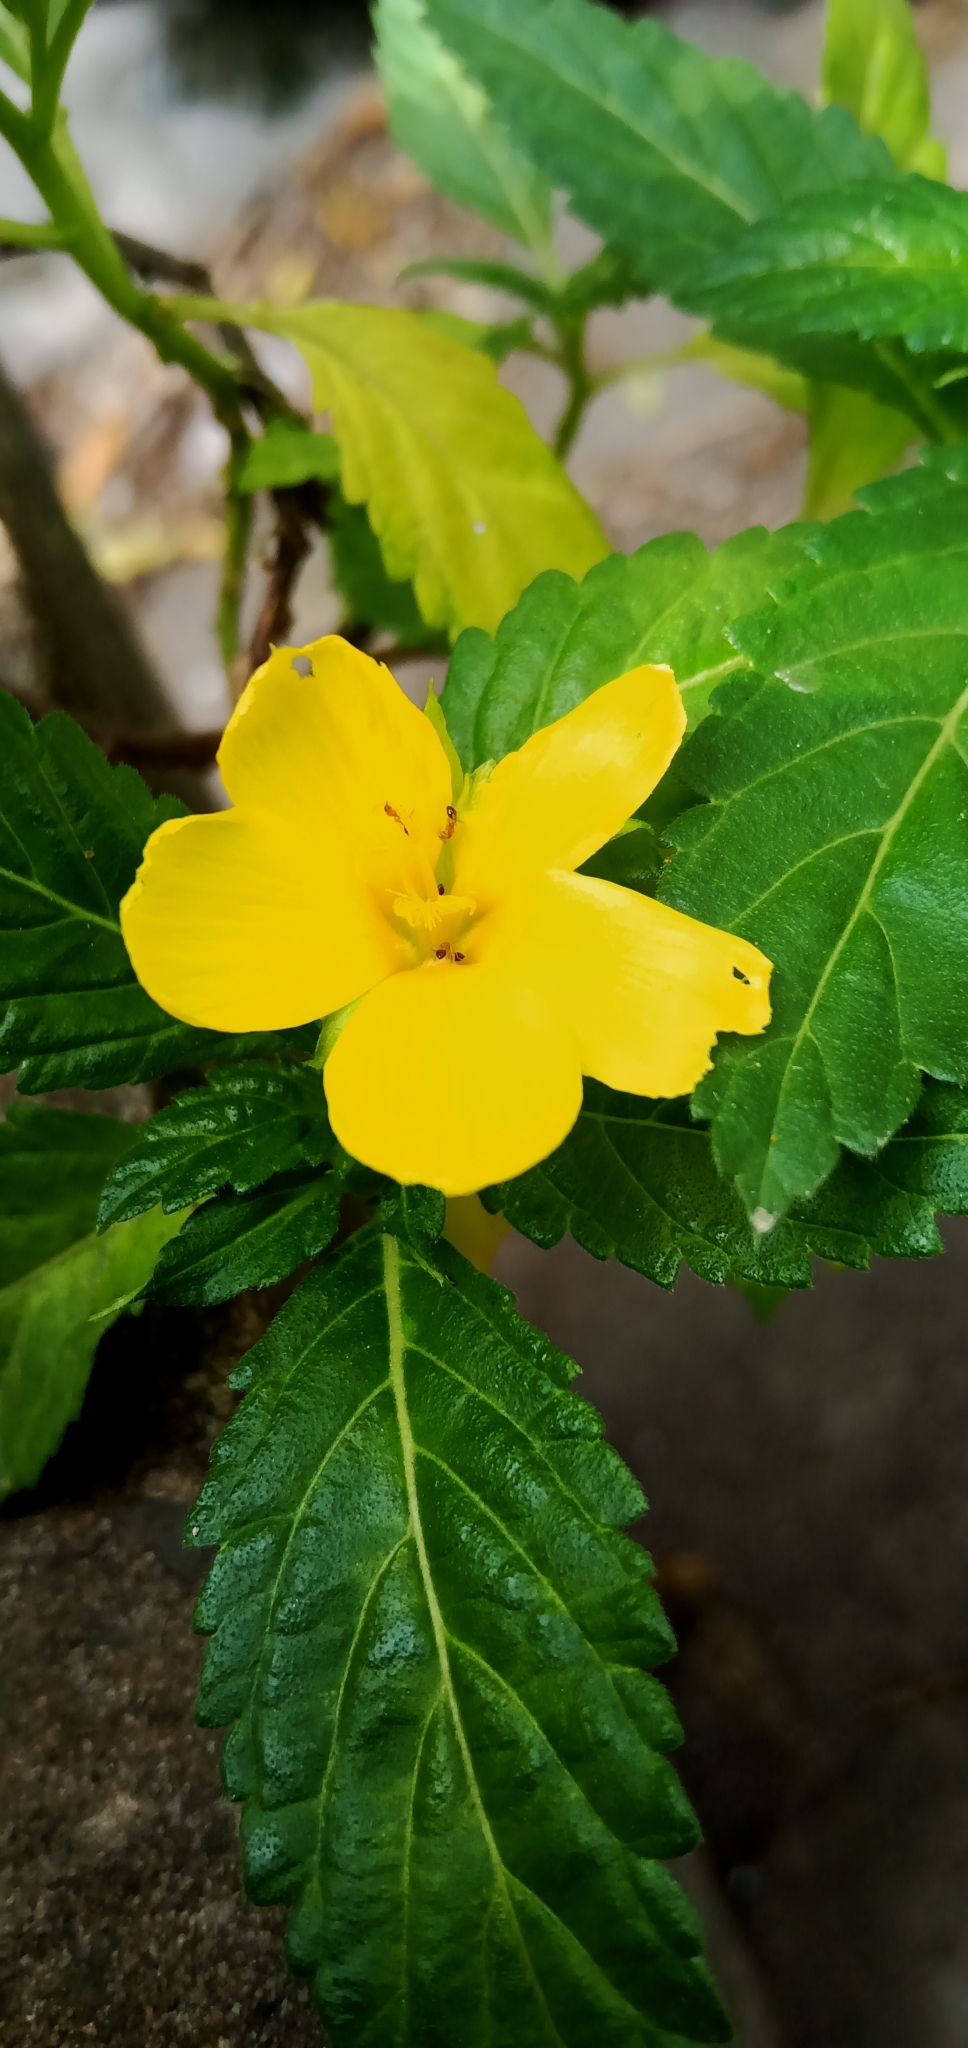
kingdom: Plantae
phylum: Tracheophyta
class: Magnoliopsida
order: Malpighiales
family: Turneraceae
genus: Turnera
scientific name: Turnera ulmifolia
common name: Ramgoat dashalong
